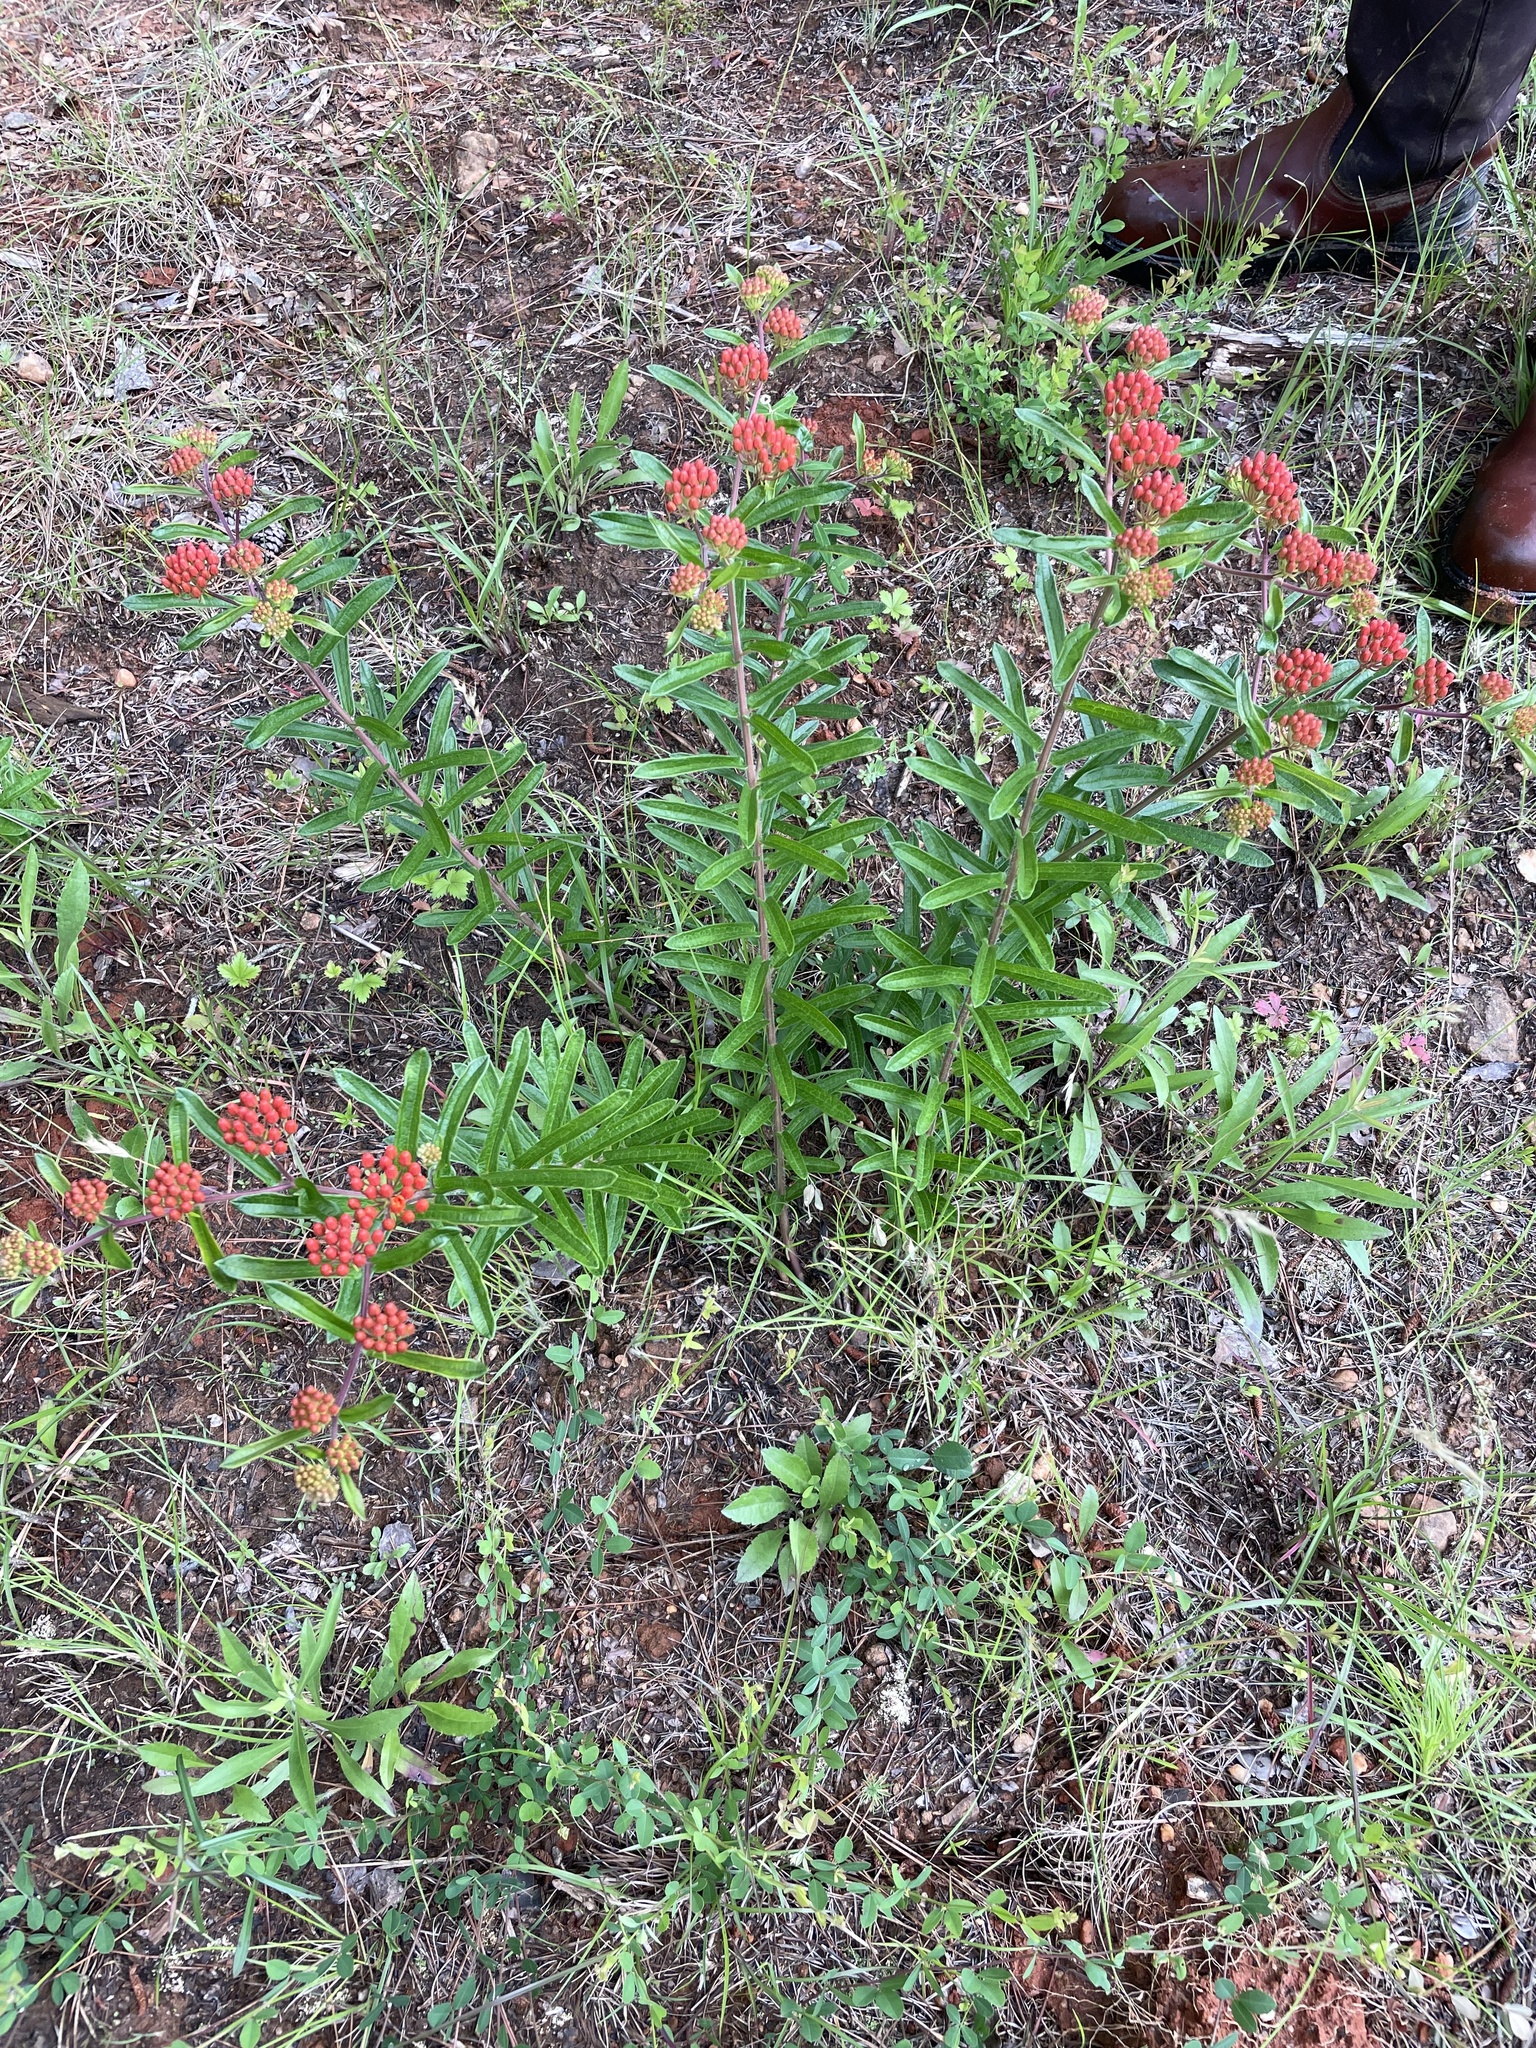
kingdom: Plantae
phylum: Tracheophyta
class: Magnoliopsida
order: Gentianales
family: Apocynaceae
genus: Asclepias
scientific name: Asclepias tuberosa
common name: Butterfly milkweed
